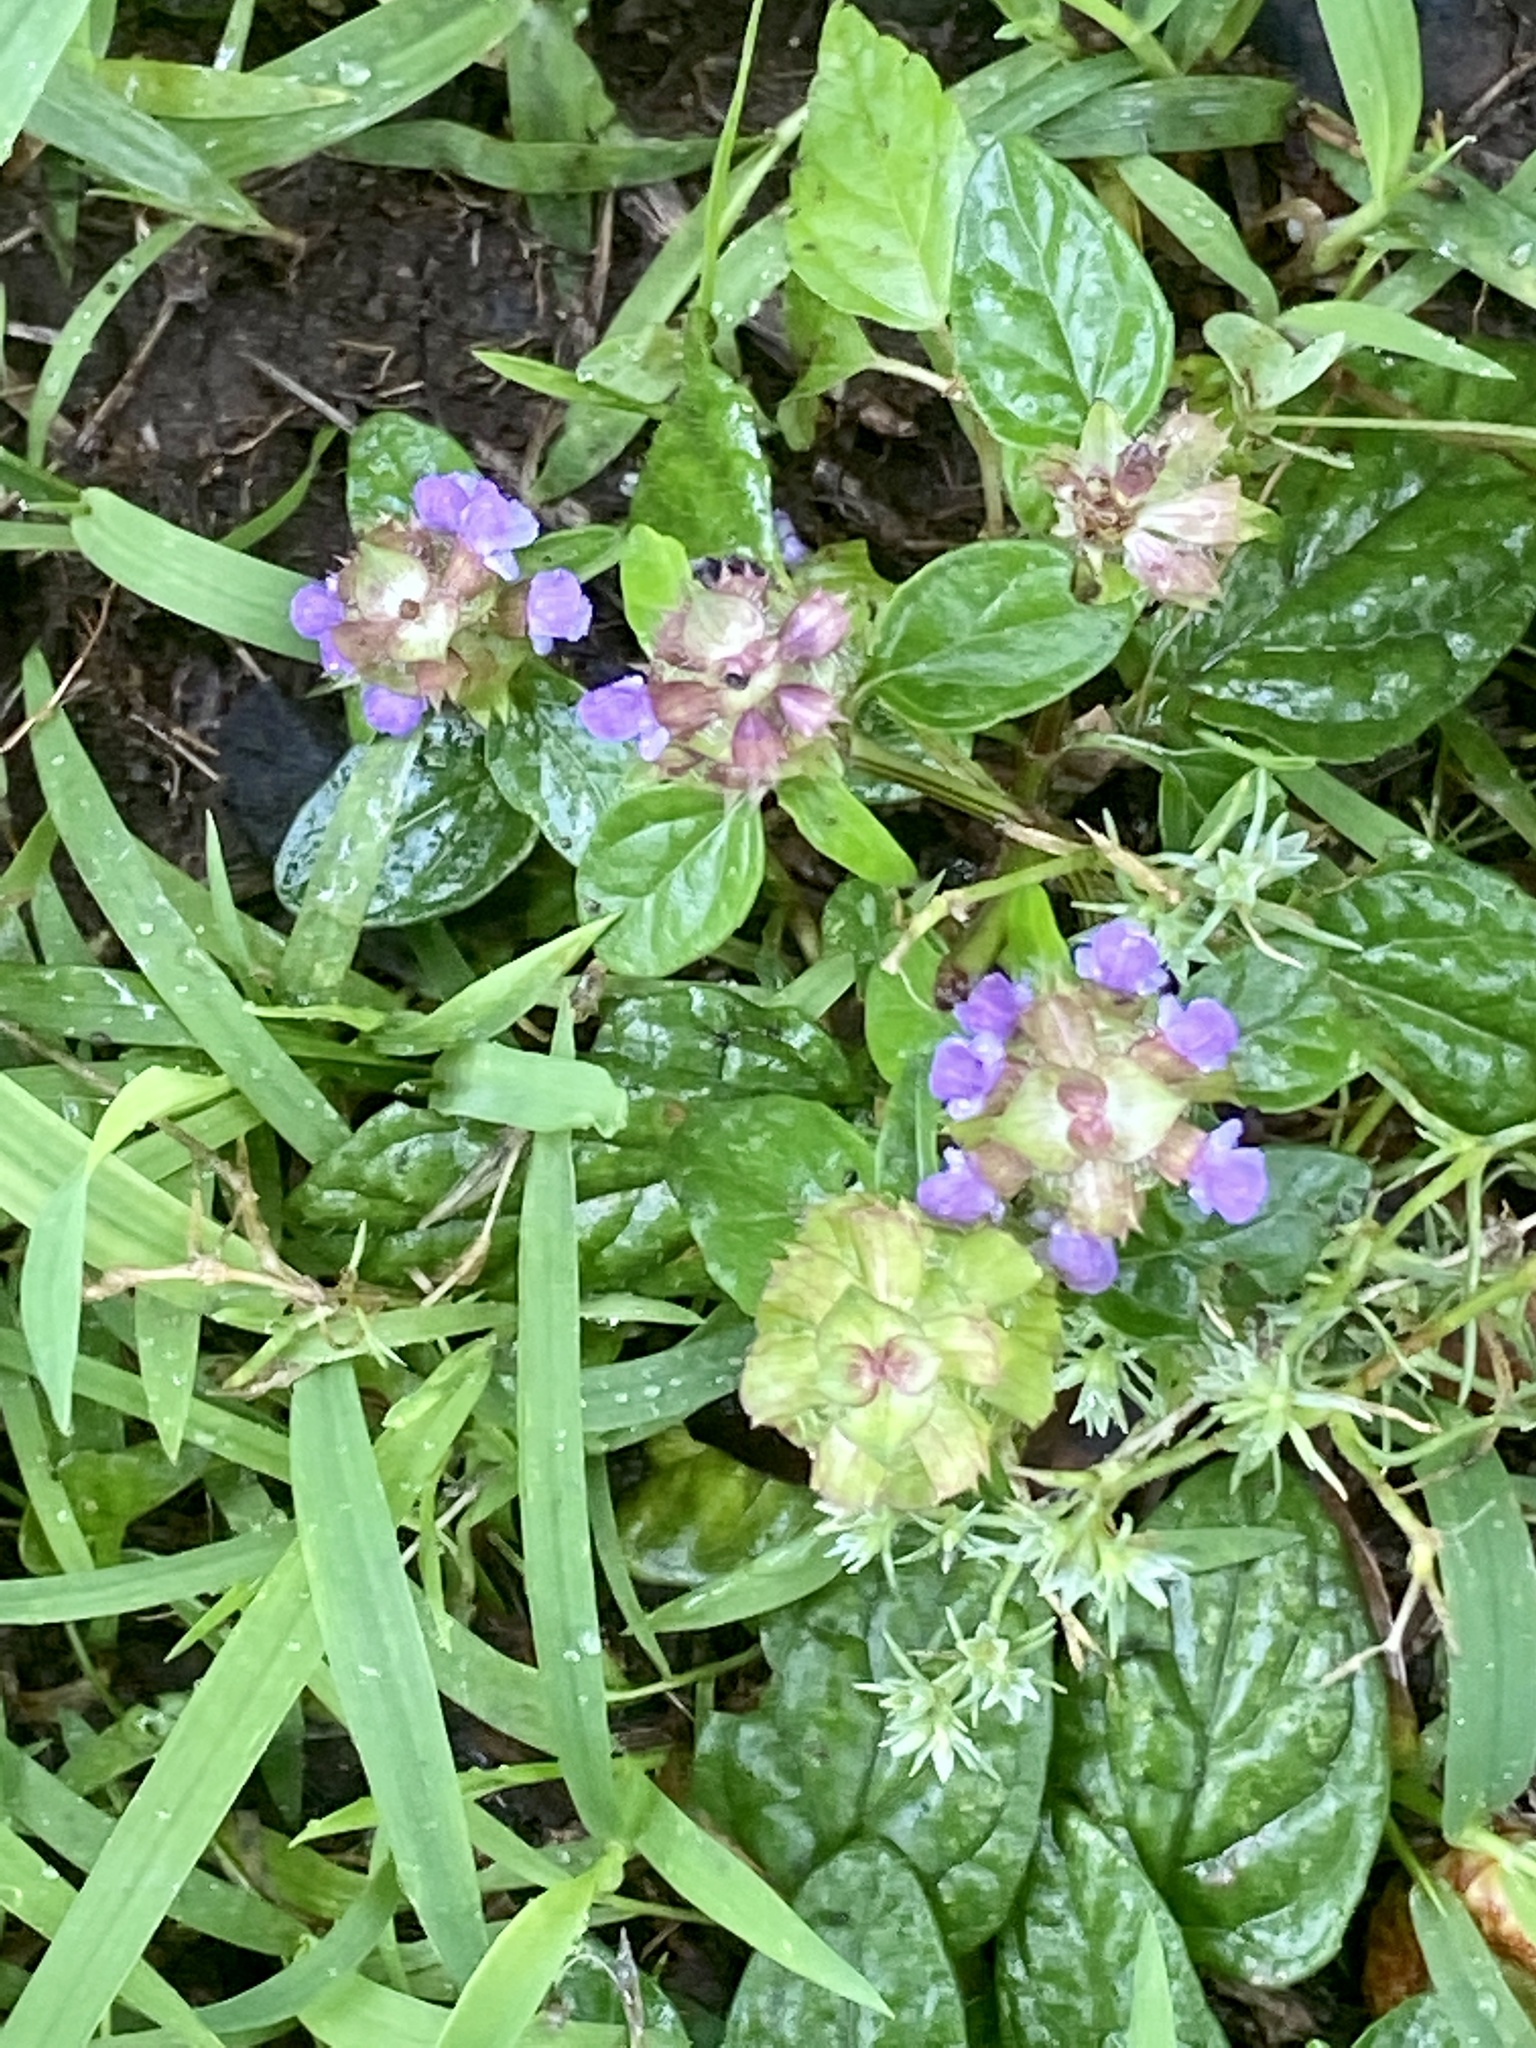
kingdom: Plantae
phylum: Tracheophyta
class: Magnoliopsida
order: Lamiales
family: Lamiaceae
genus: Prunella
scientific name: Prunella vulgaris
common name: Heal-all
